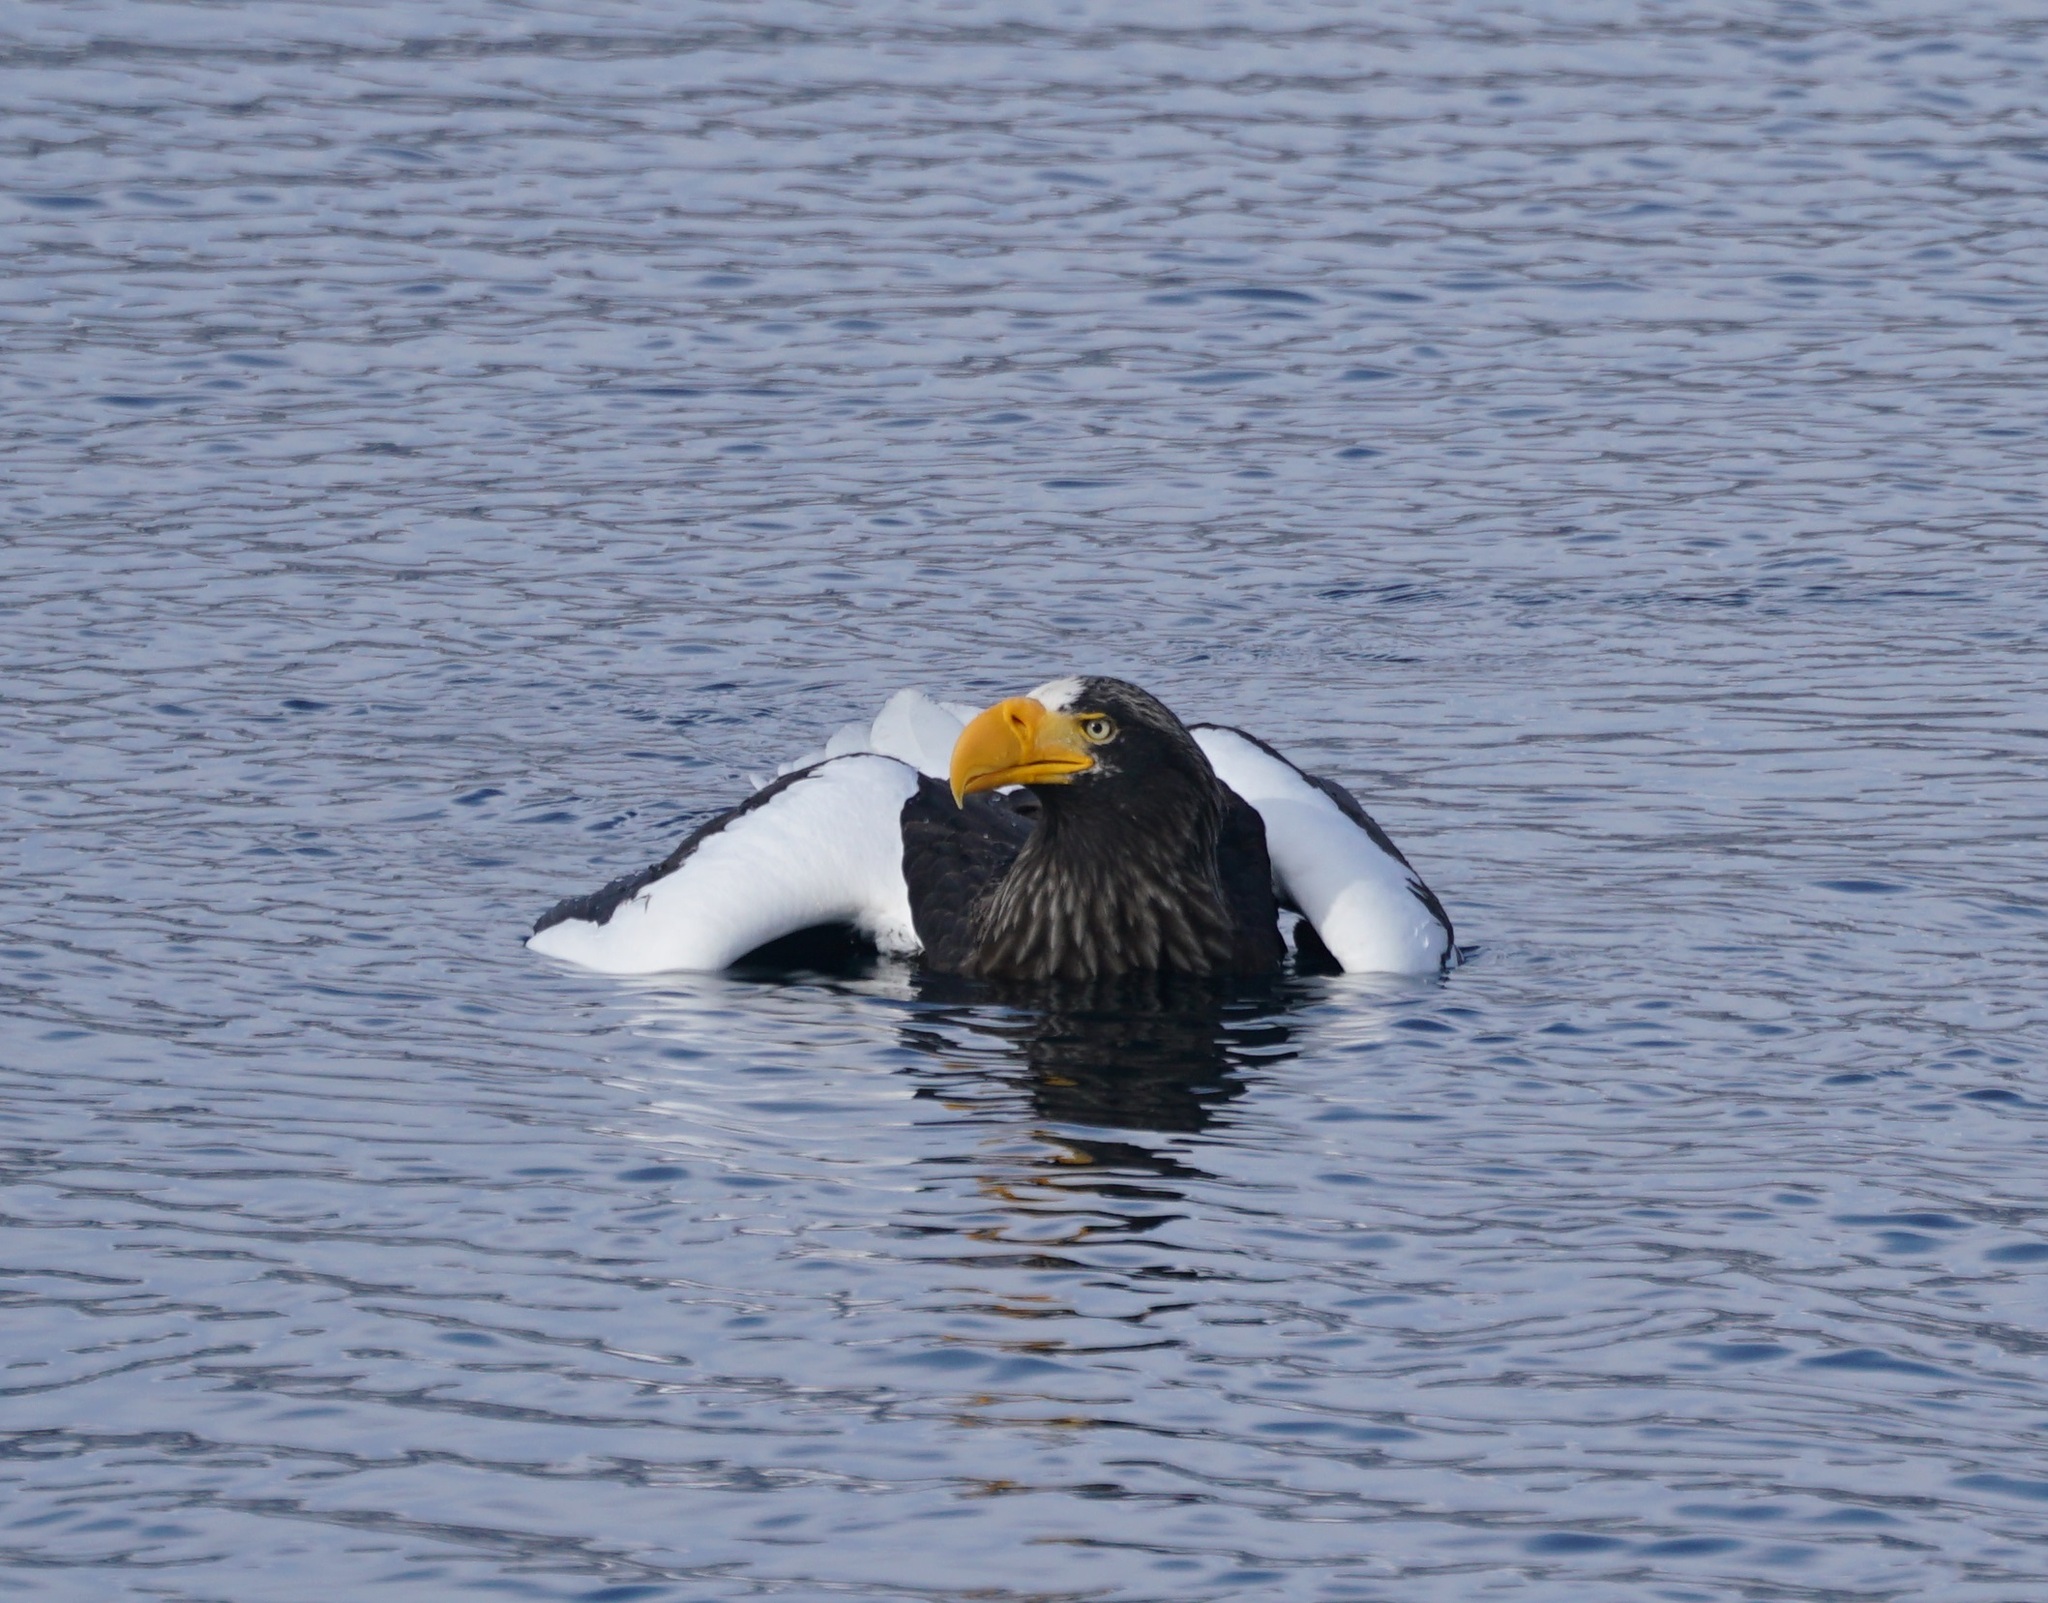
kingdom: Animalia
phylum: Chordata
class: Aves
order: Accipitriformes
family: Accipitridae
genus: Haliaeetus
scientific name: Haliaeetus pelagicus
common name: Steller's sea eagle
